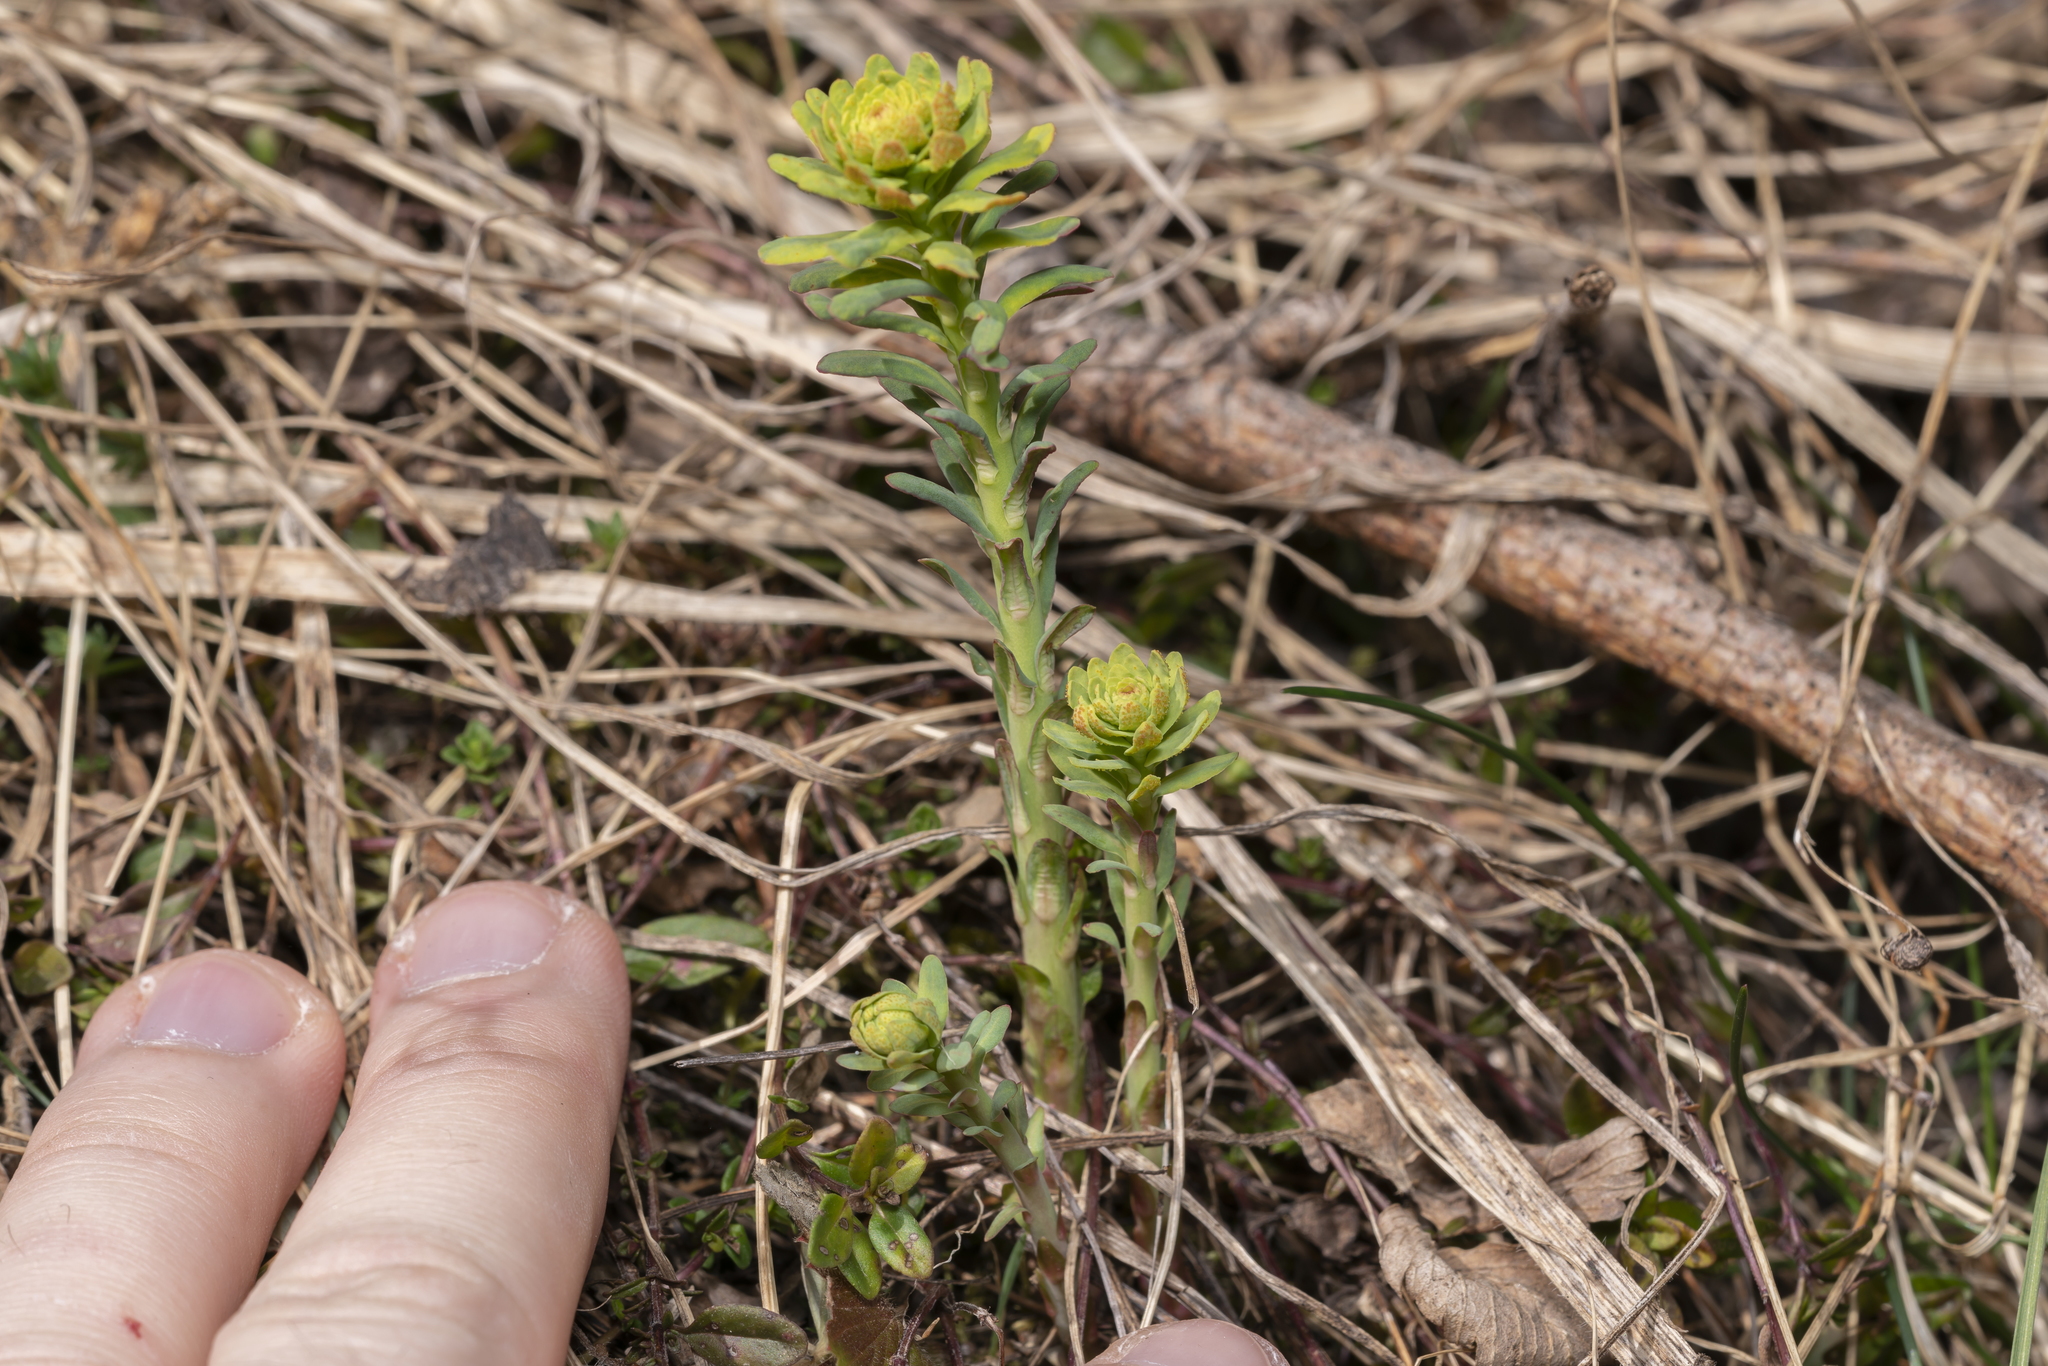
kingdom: Plantae
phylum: Tracheophyta
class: Magnoliopsida
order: Malpighiales
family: Euphorbiaceae
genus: Euphorbia
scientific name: Euphorbia cyparissias
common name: Cypress spurge
